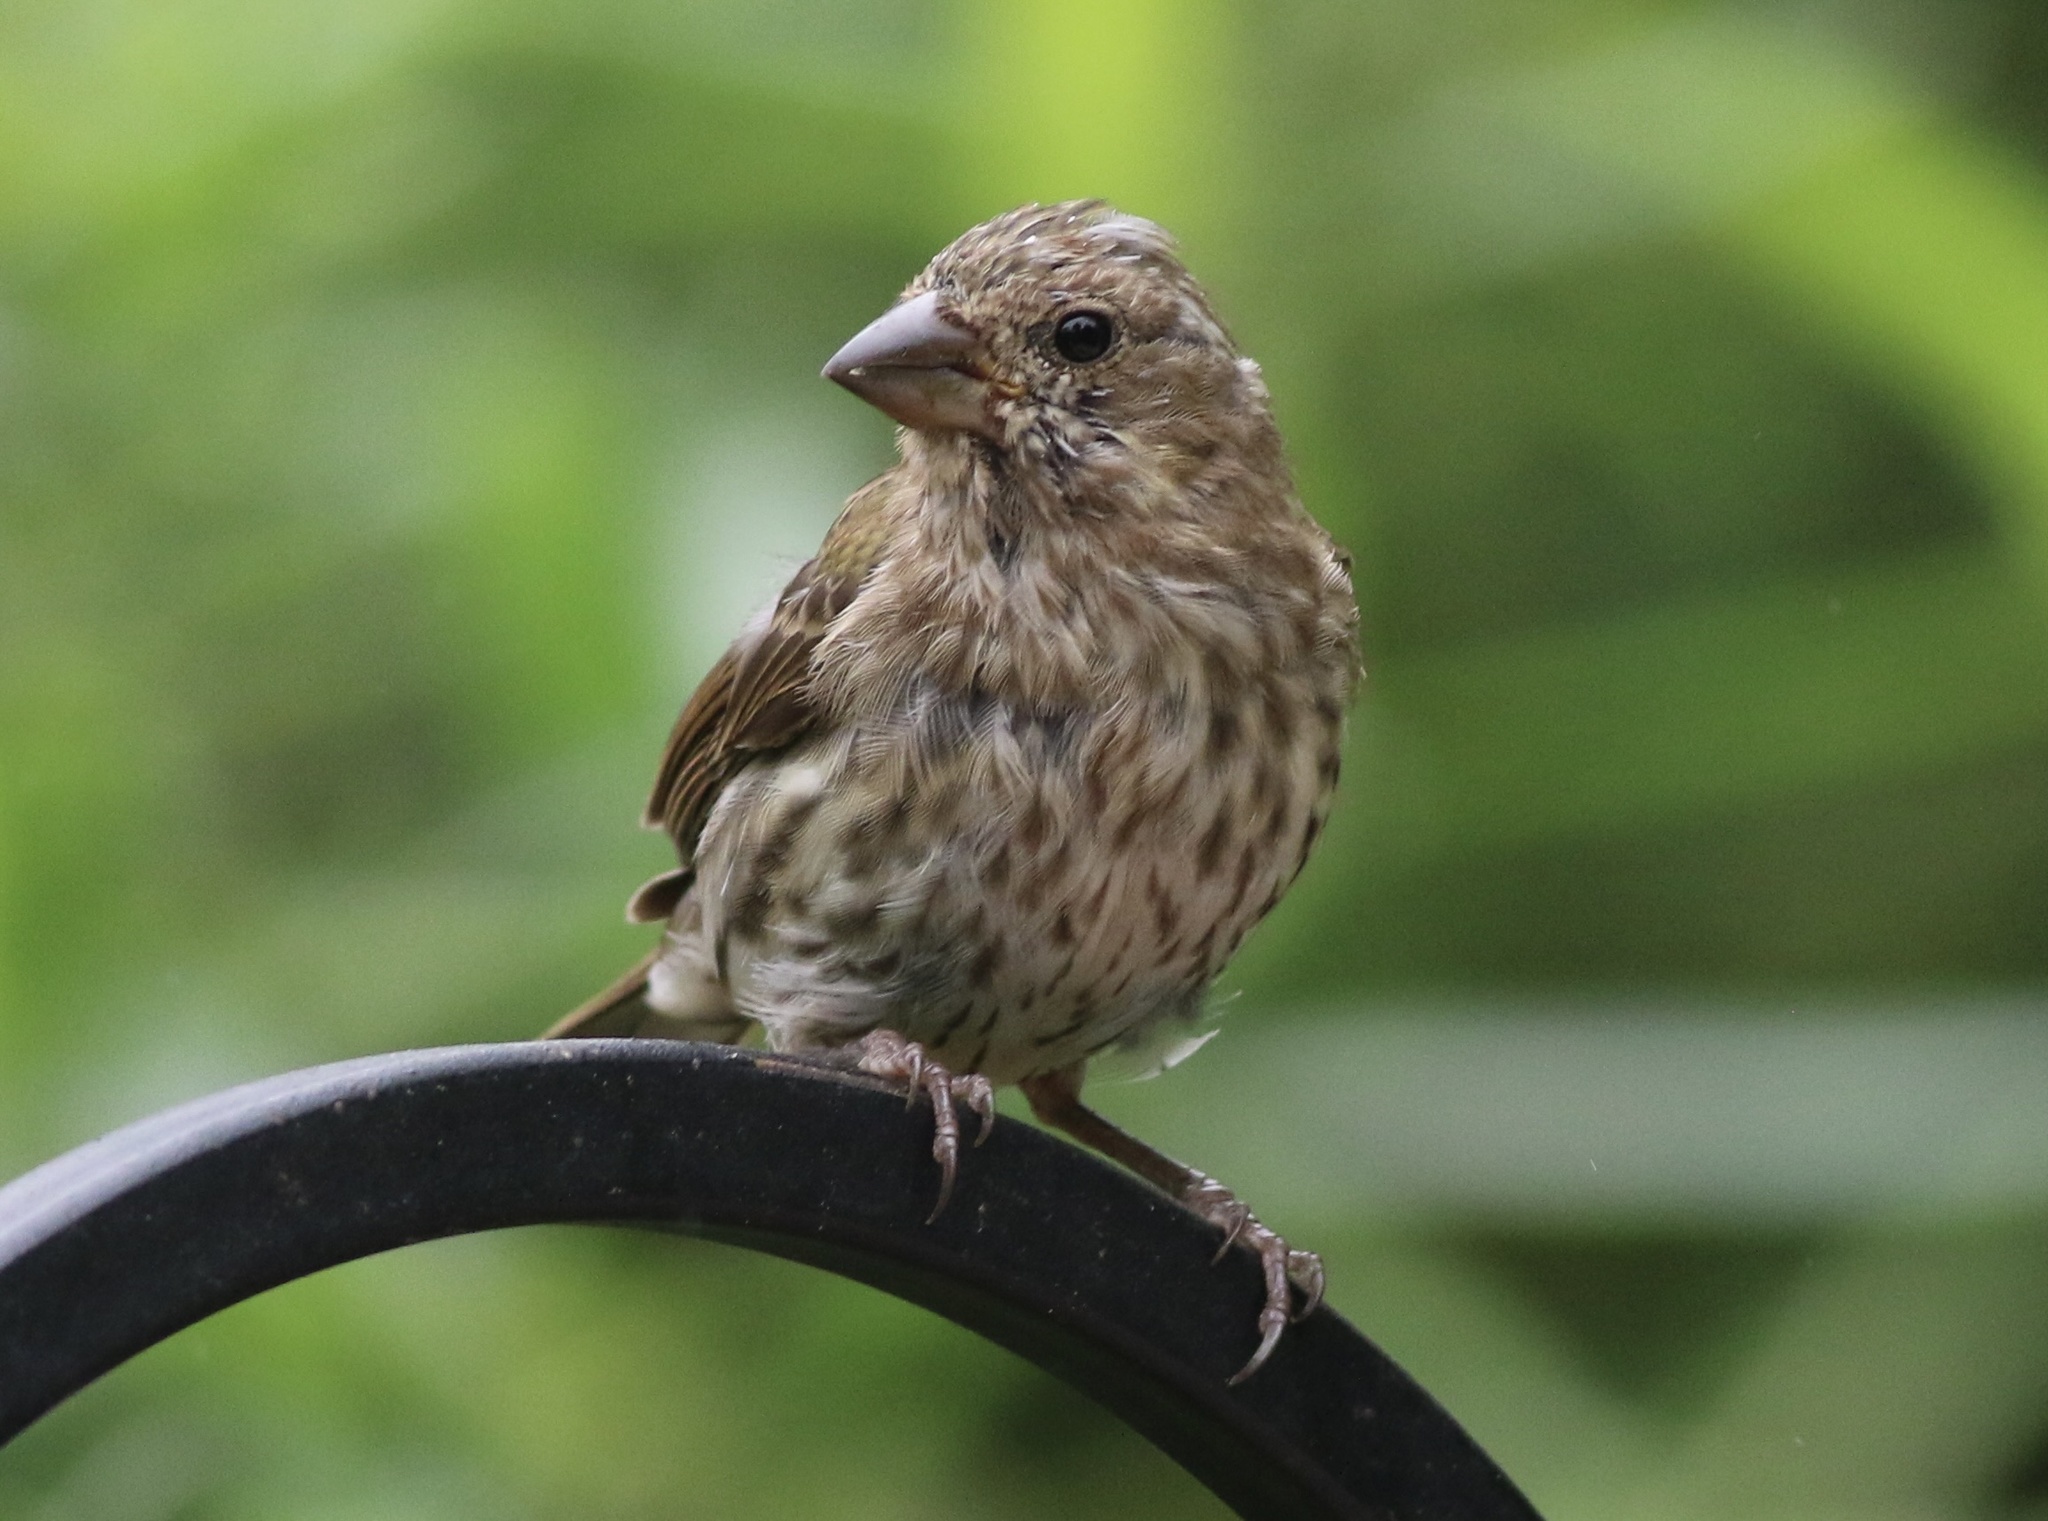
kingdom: Animalia
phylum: Chordata
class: Aves
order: Passeriformes
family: Fringillidae
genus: Haemorhous
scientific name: Haemorhous purpureus
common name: Purple finch
